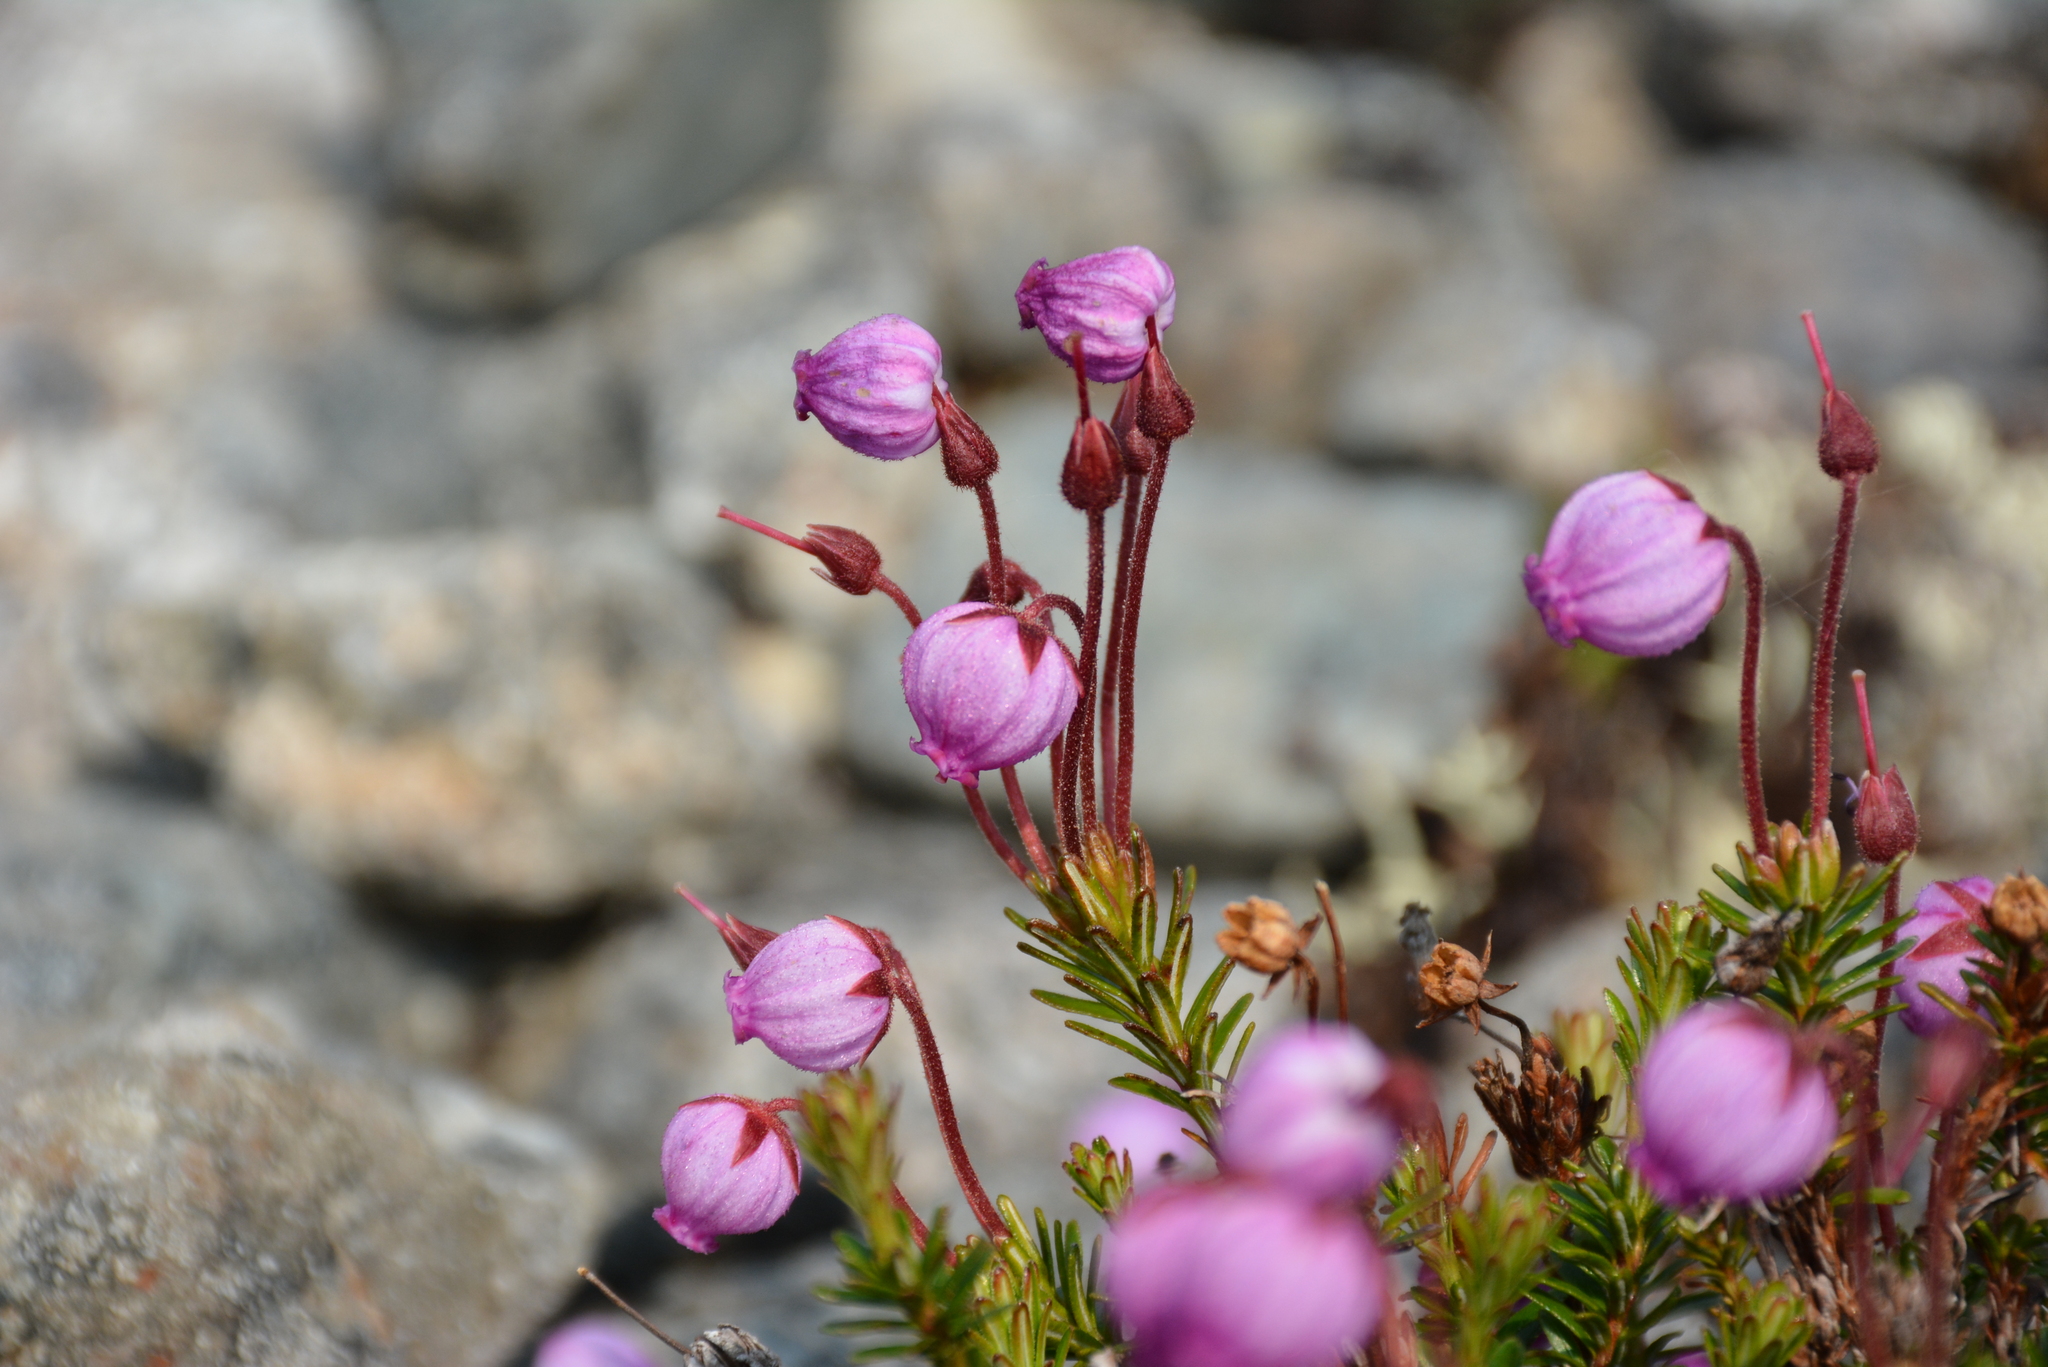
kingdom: Plantae
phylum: Tracheophyta
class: Magnoliopsida
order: Ericales
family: Ericaceae
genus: Phyllodoce
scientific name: Phyllodoce caerulea
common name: Blue heath
